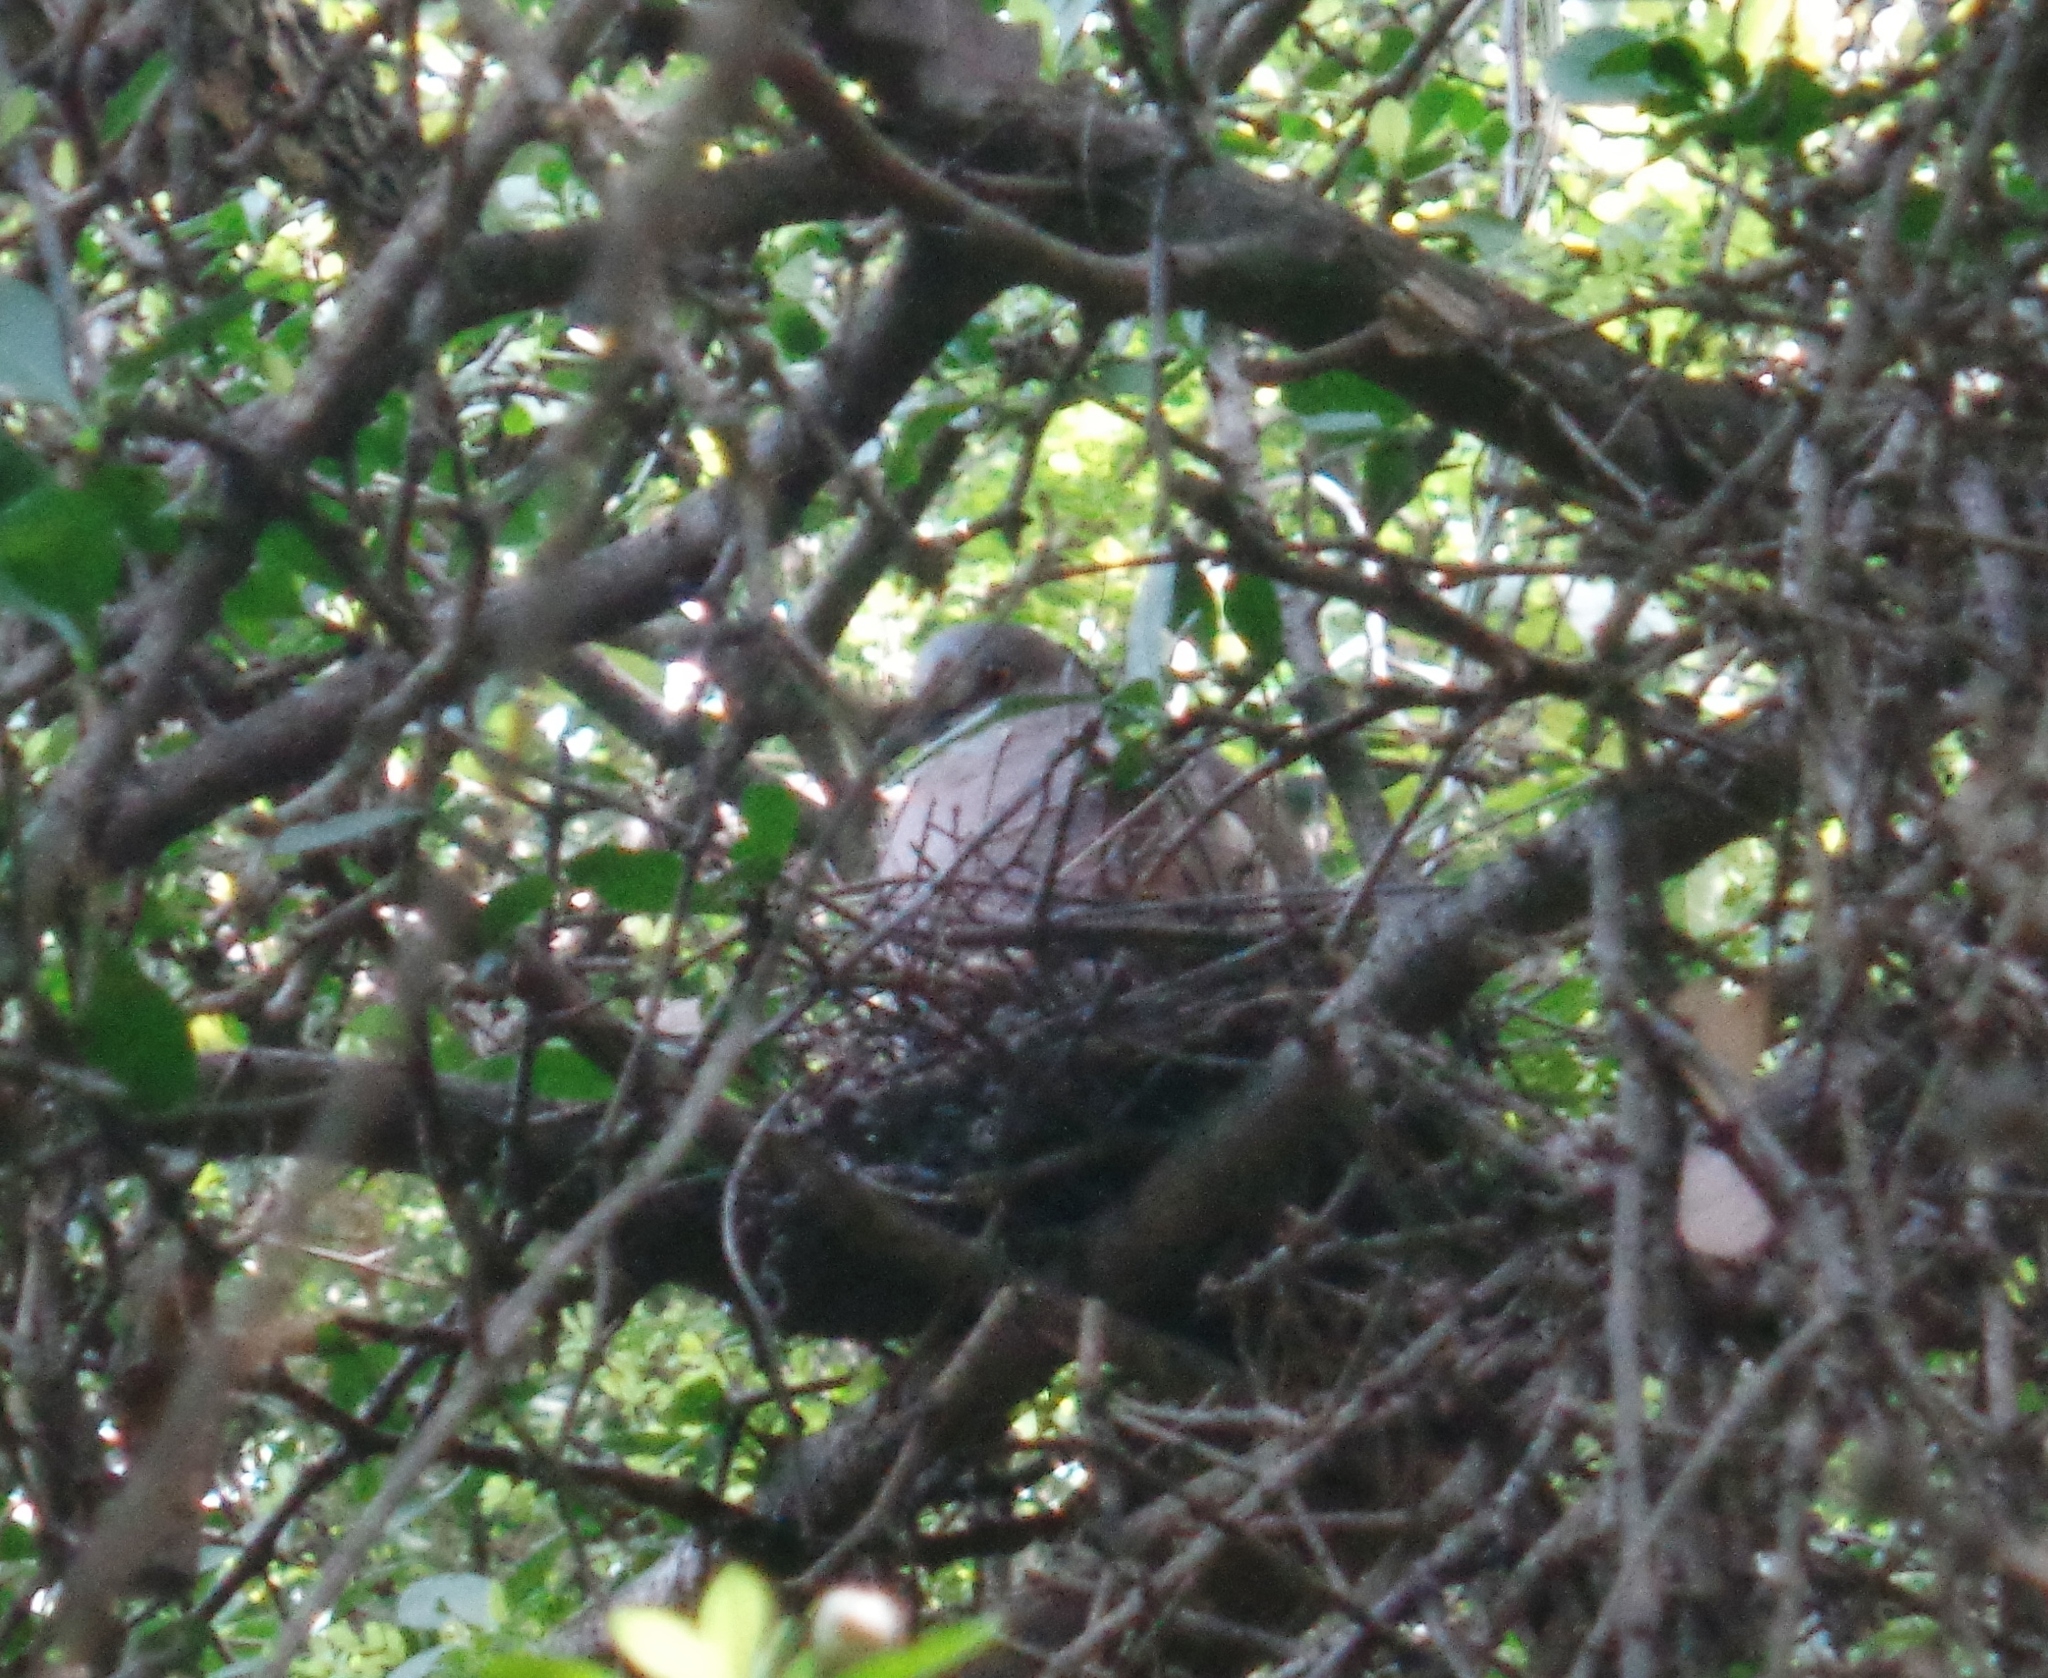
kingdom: Animalia
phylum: Chordata
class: Aves
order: Columbiformes
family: Columbidae
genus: Zenaida
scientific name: Zenaida asiatica
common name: White-winged dove
